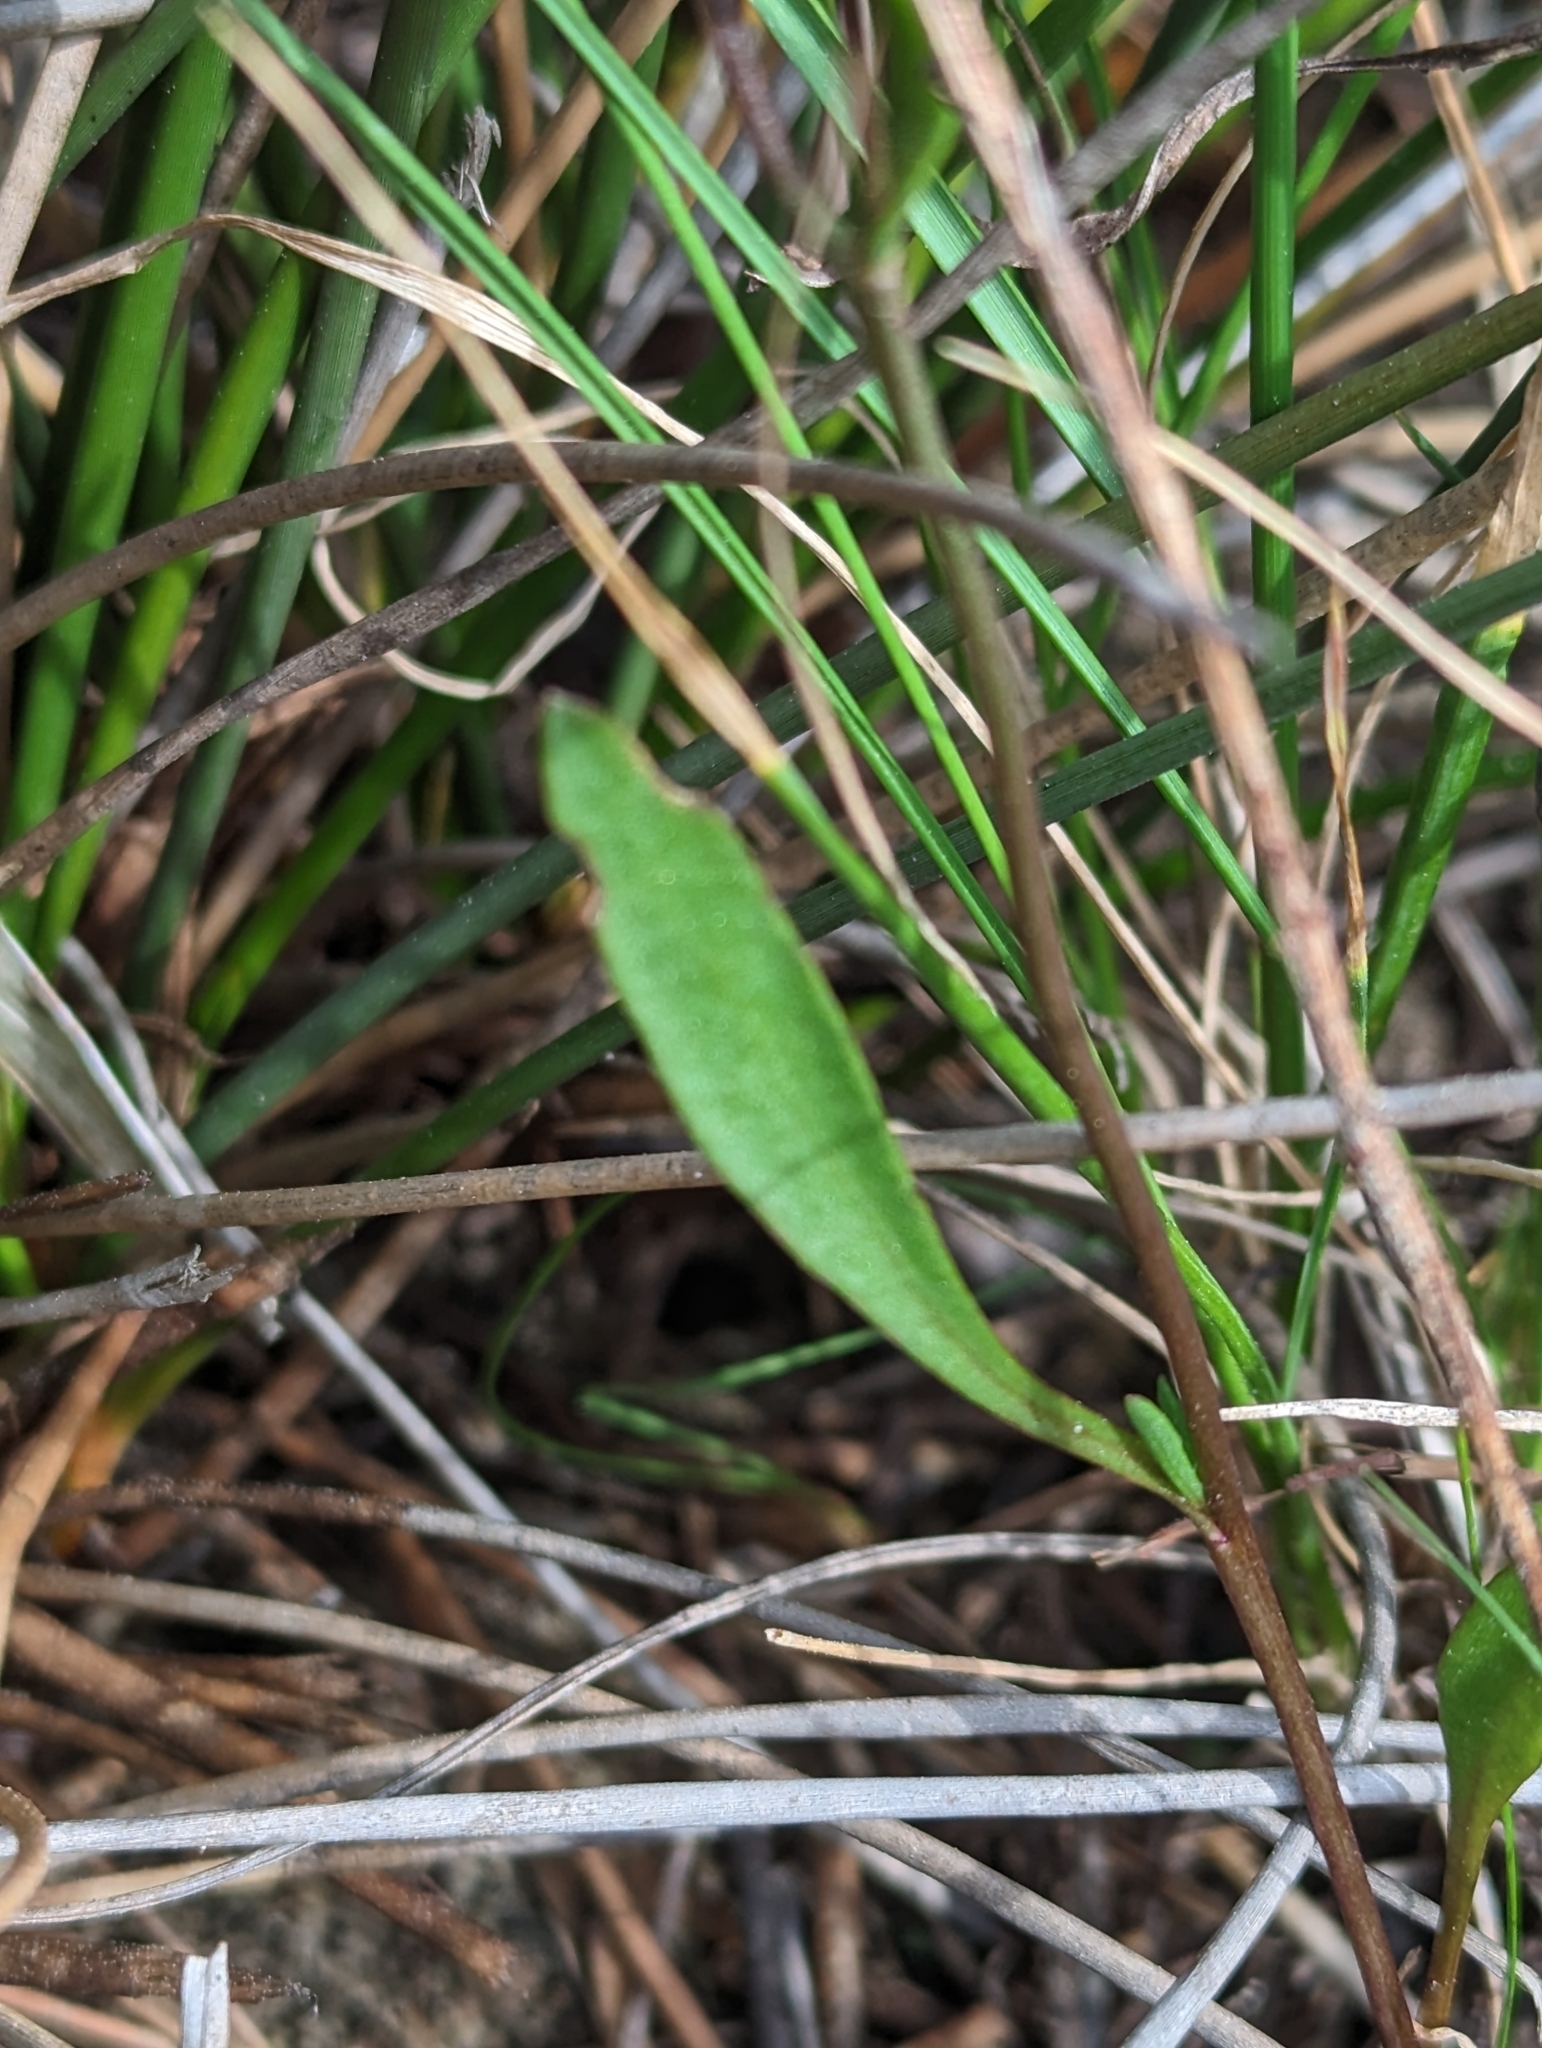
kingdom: Plantae
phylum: Tracheophyta
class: Magnoliopsida
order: Asterales
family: Asteraceae
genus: Tripolium
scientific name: Tripolium pannonicum
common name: Sea aster
